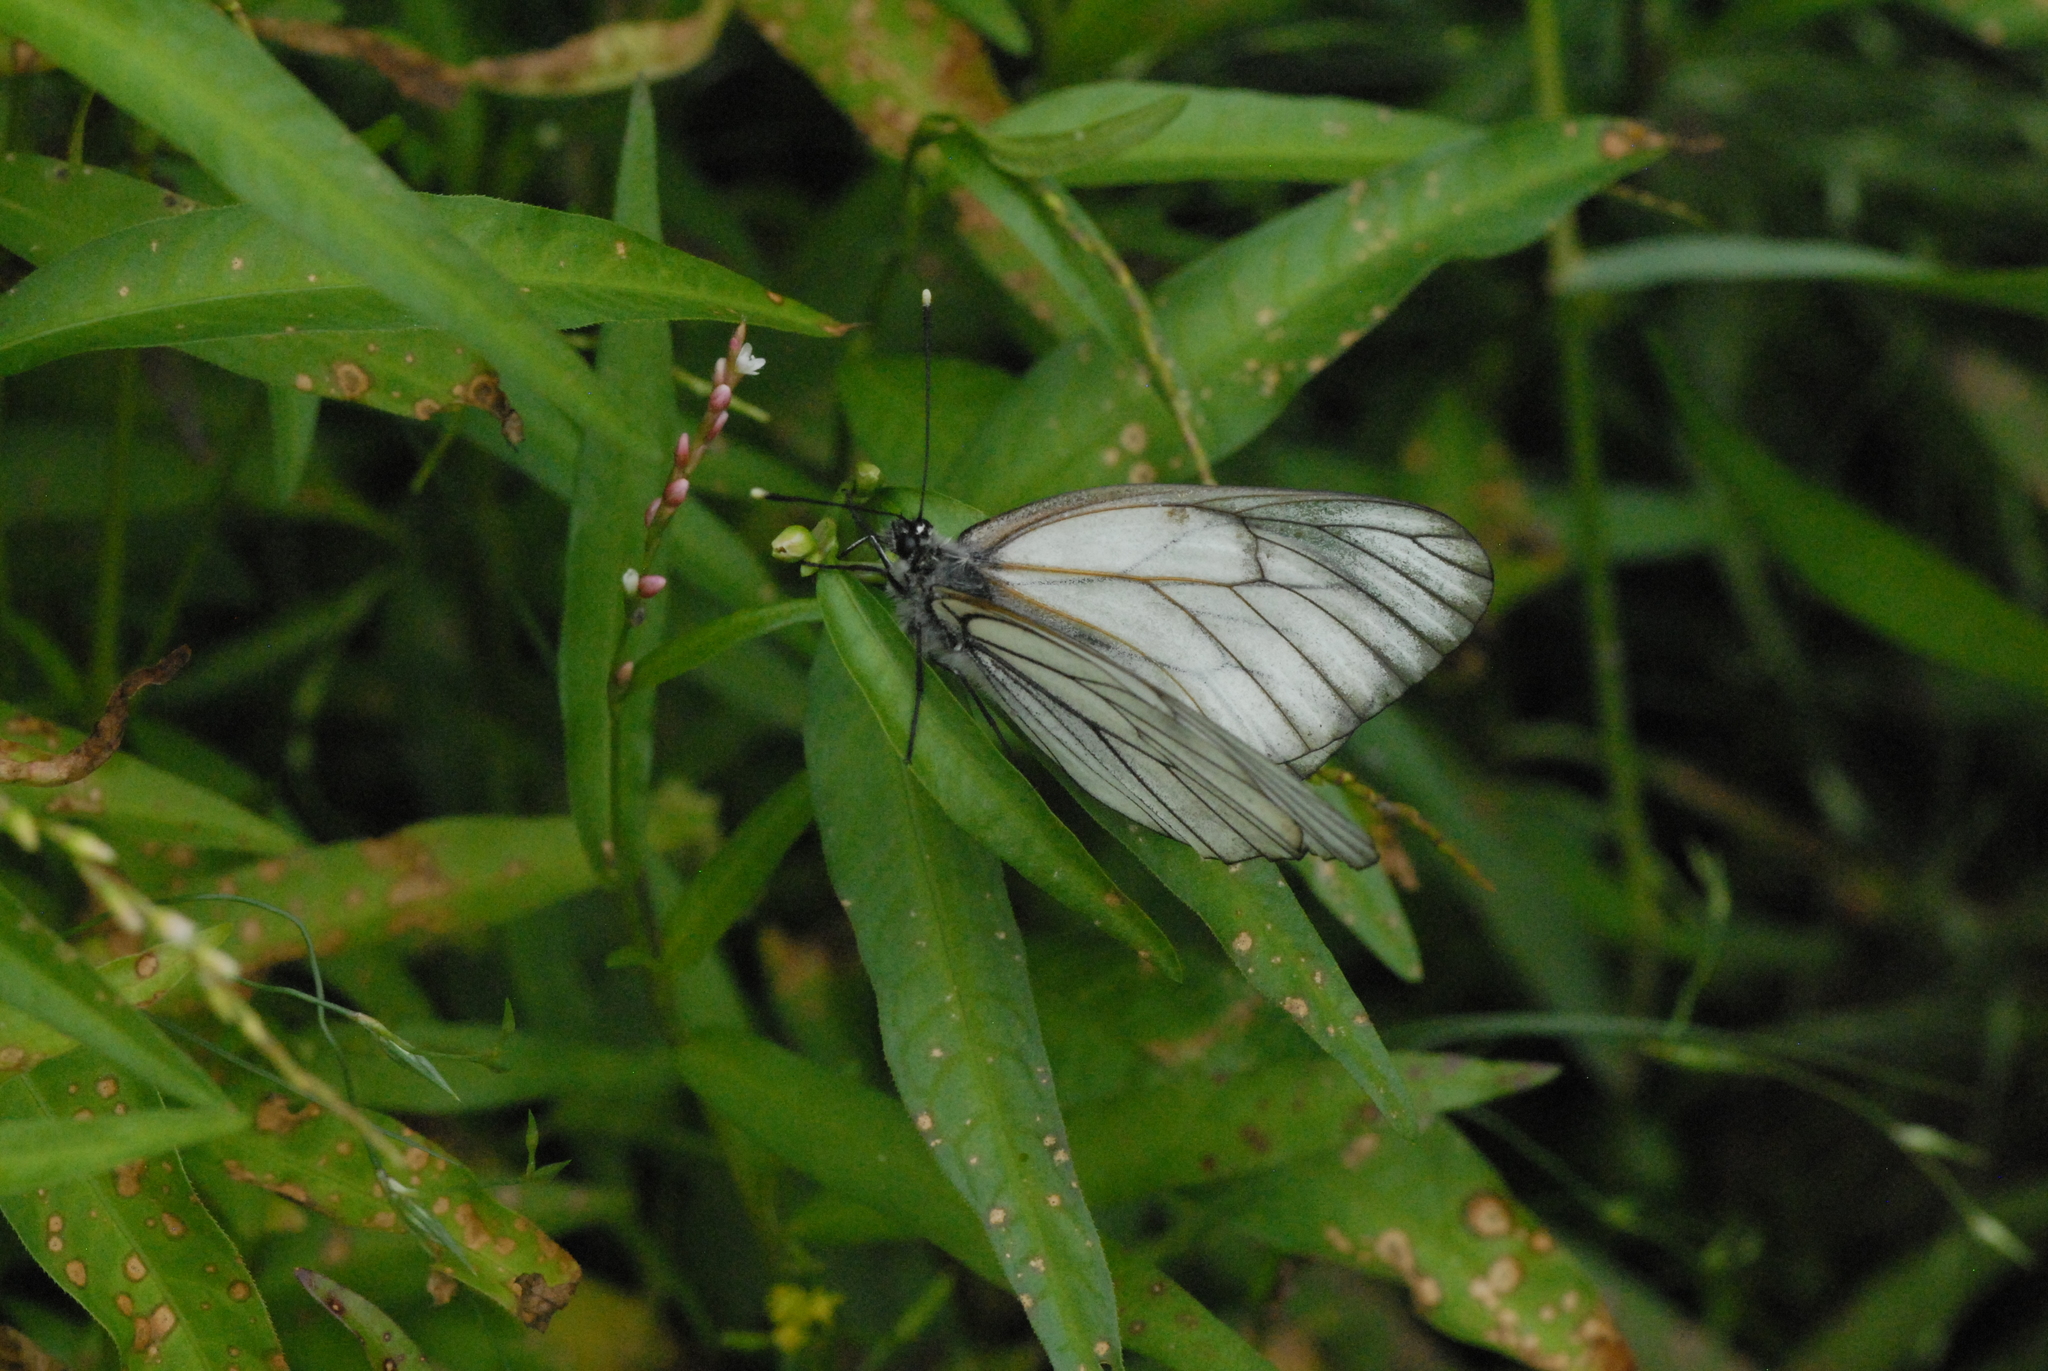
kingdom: Animalia
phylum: Arthropoda
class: Insecta
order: Lepidoptera
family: Pieridae
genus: Aporia
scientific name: Aporia crataegi
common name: Black-veined white
